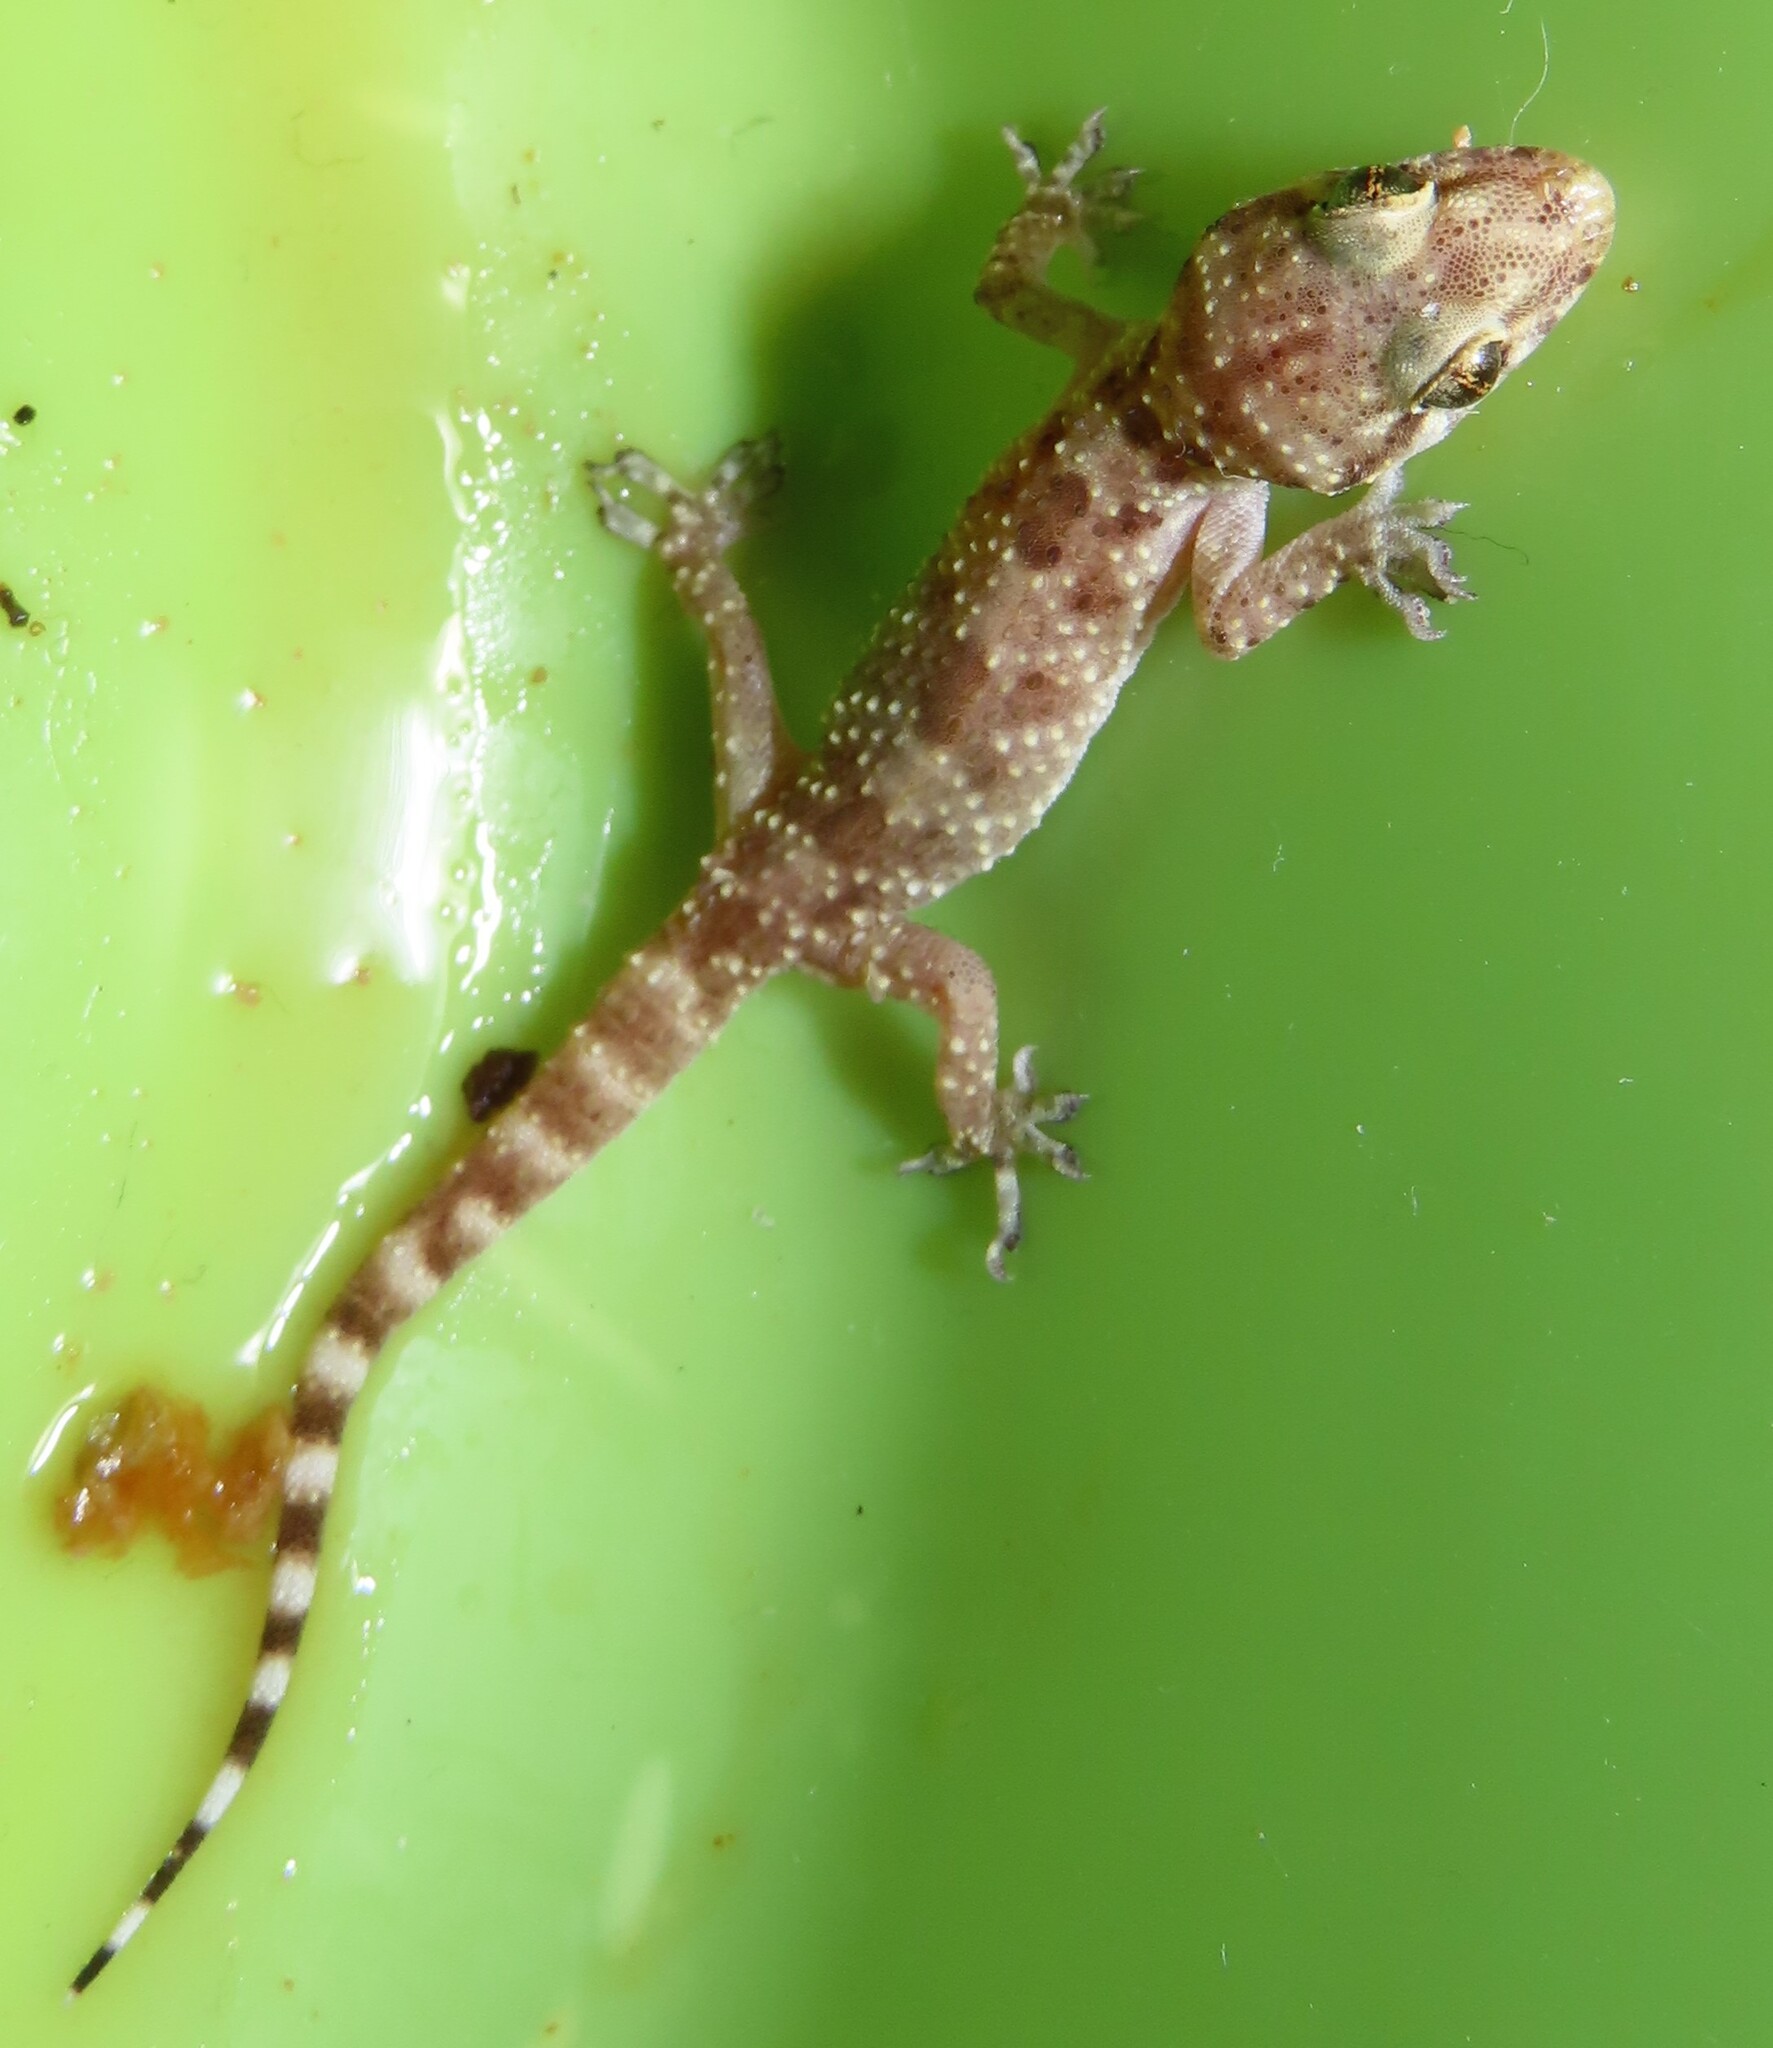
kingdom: Animalia
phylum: Chordata
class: Squamata
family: Gekkonidae
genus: Hemidactylus
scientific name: Hemidactylus turcicus
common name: Turkish gecko
